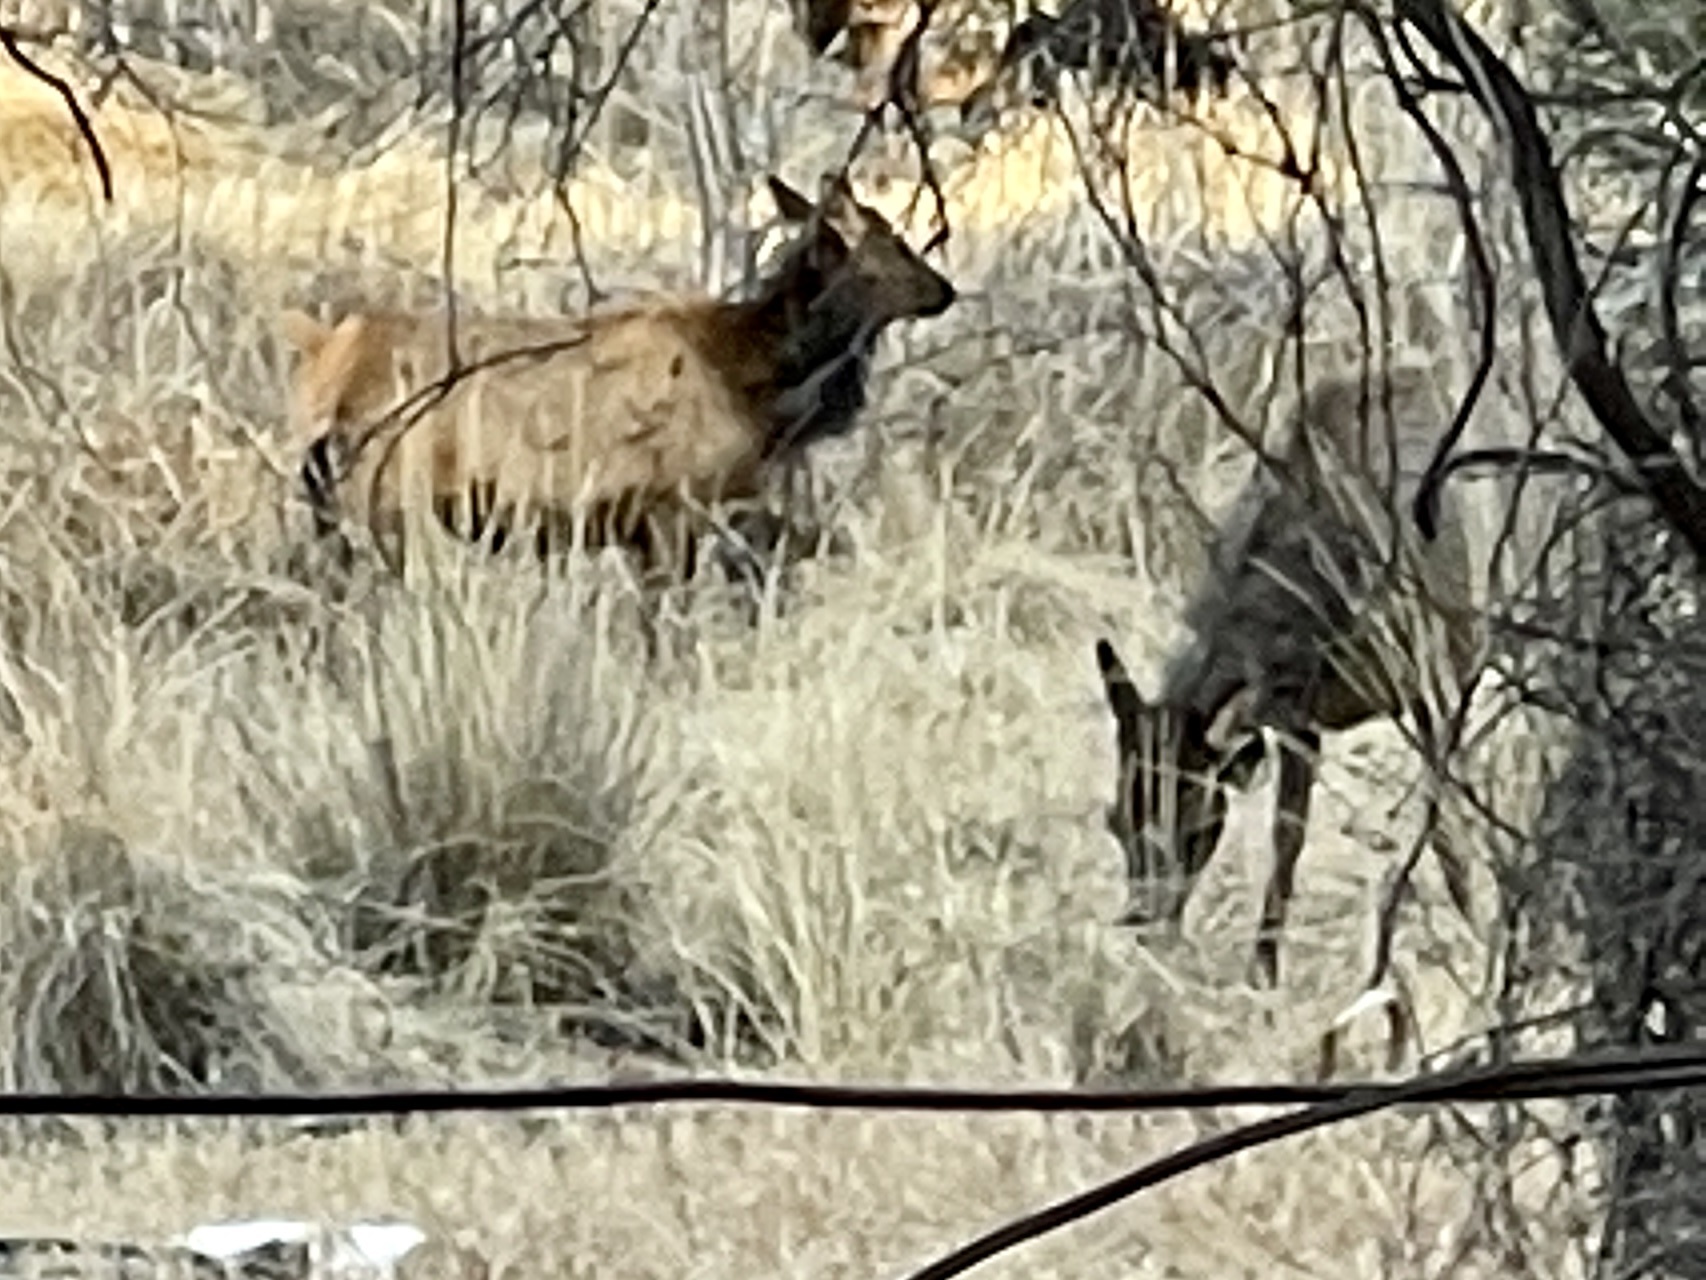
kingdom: Animalia
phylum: Chordata
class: Mammalia
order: Artiodactyla
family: Cervidae
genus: Cervus
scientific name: Cervus elaphus
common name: Red deer
